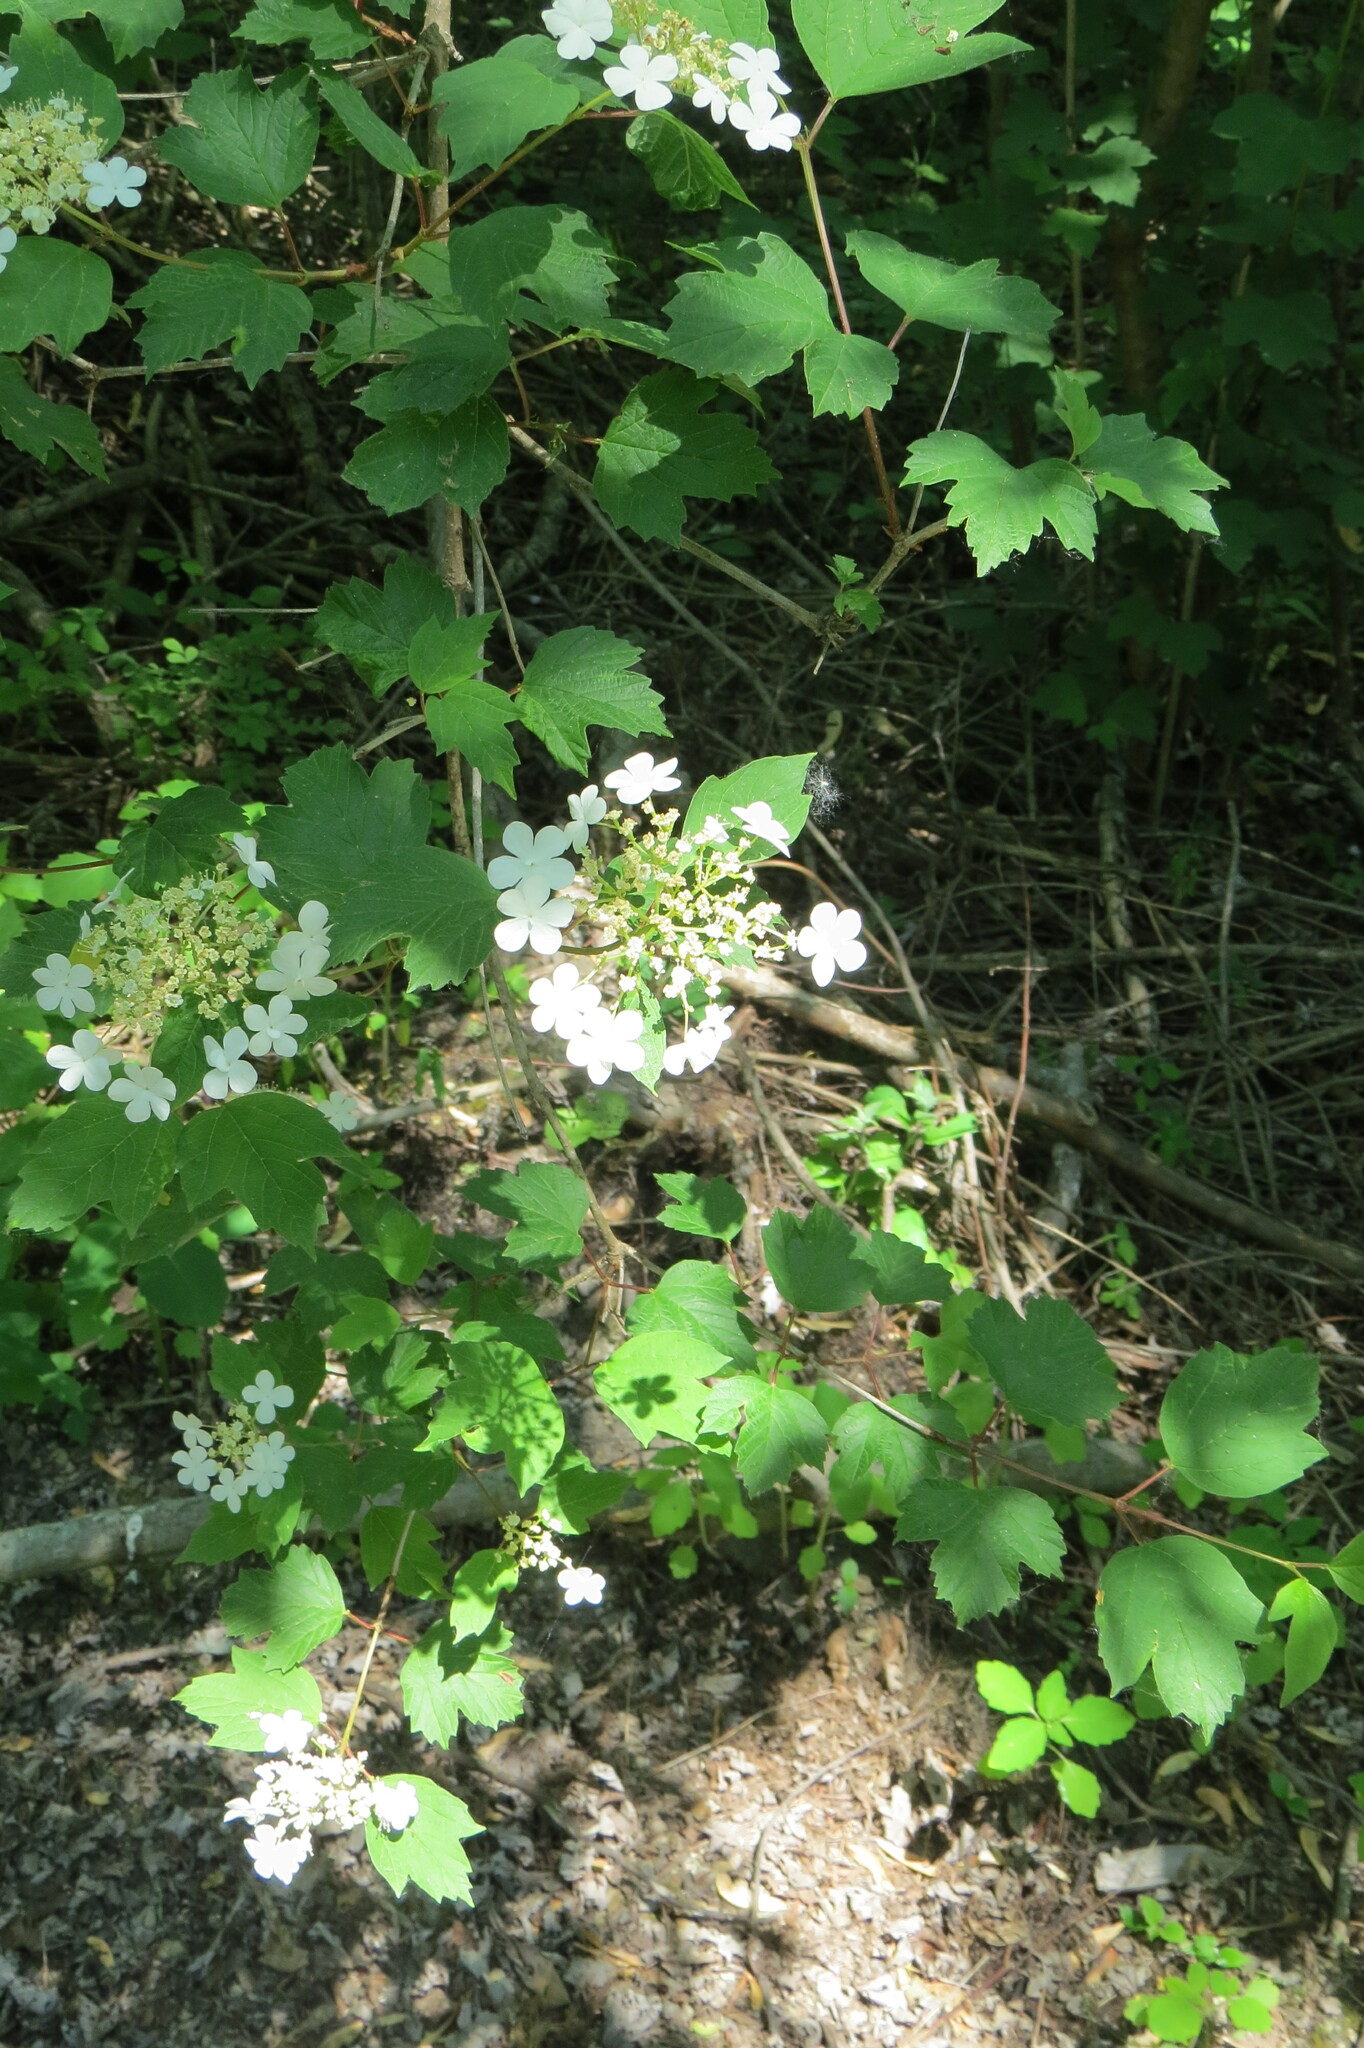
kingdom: Plantae
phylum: Tracheophyta
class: Magnoliopsida
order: Dipsacales
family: Viburnaceae
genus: Viburnum
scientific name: Viburnum opulus
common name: Guelder-rose
